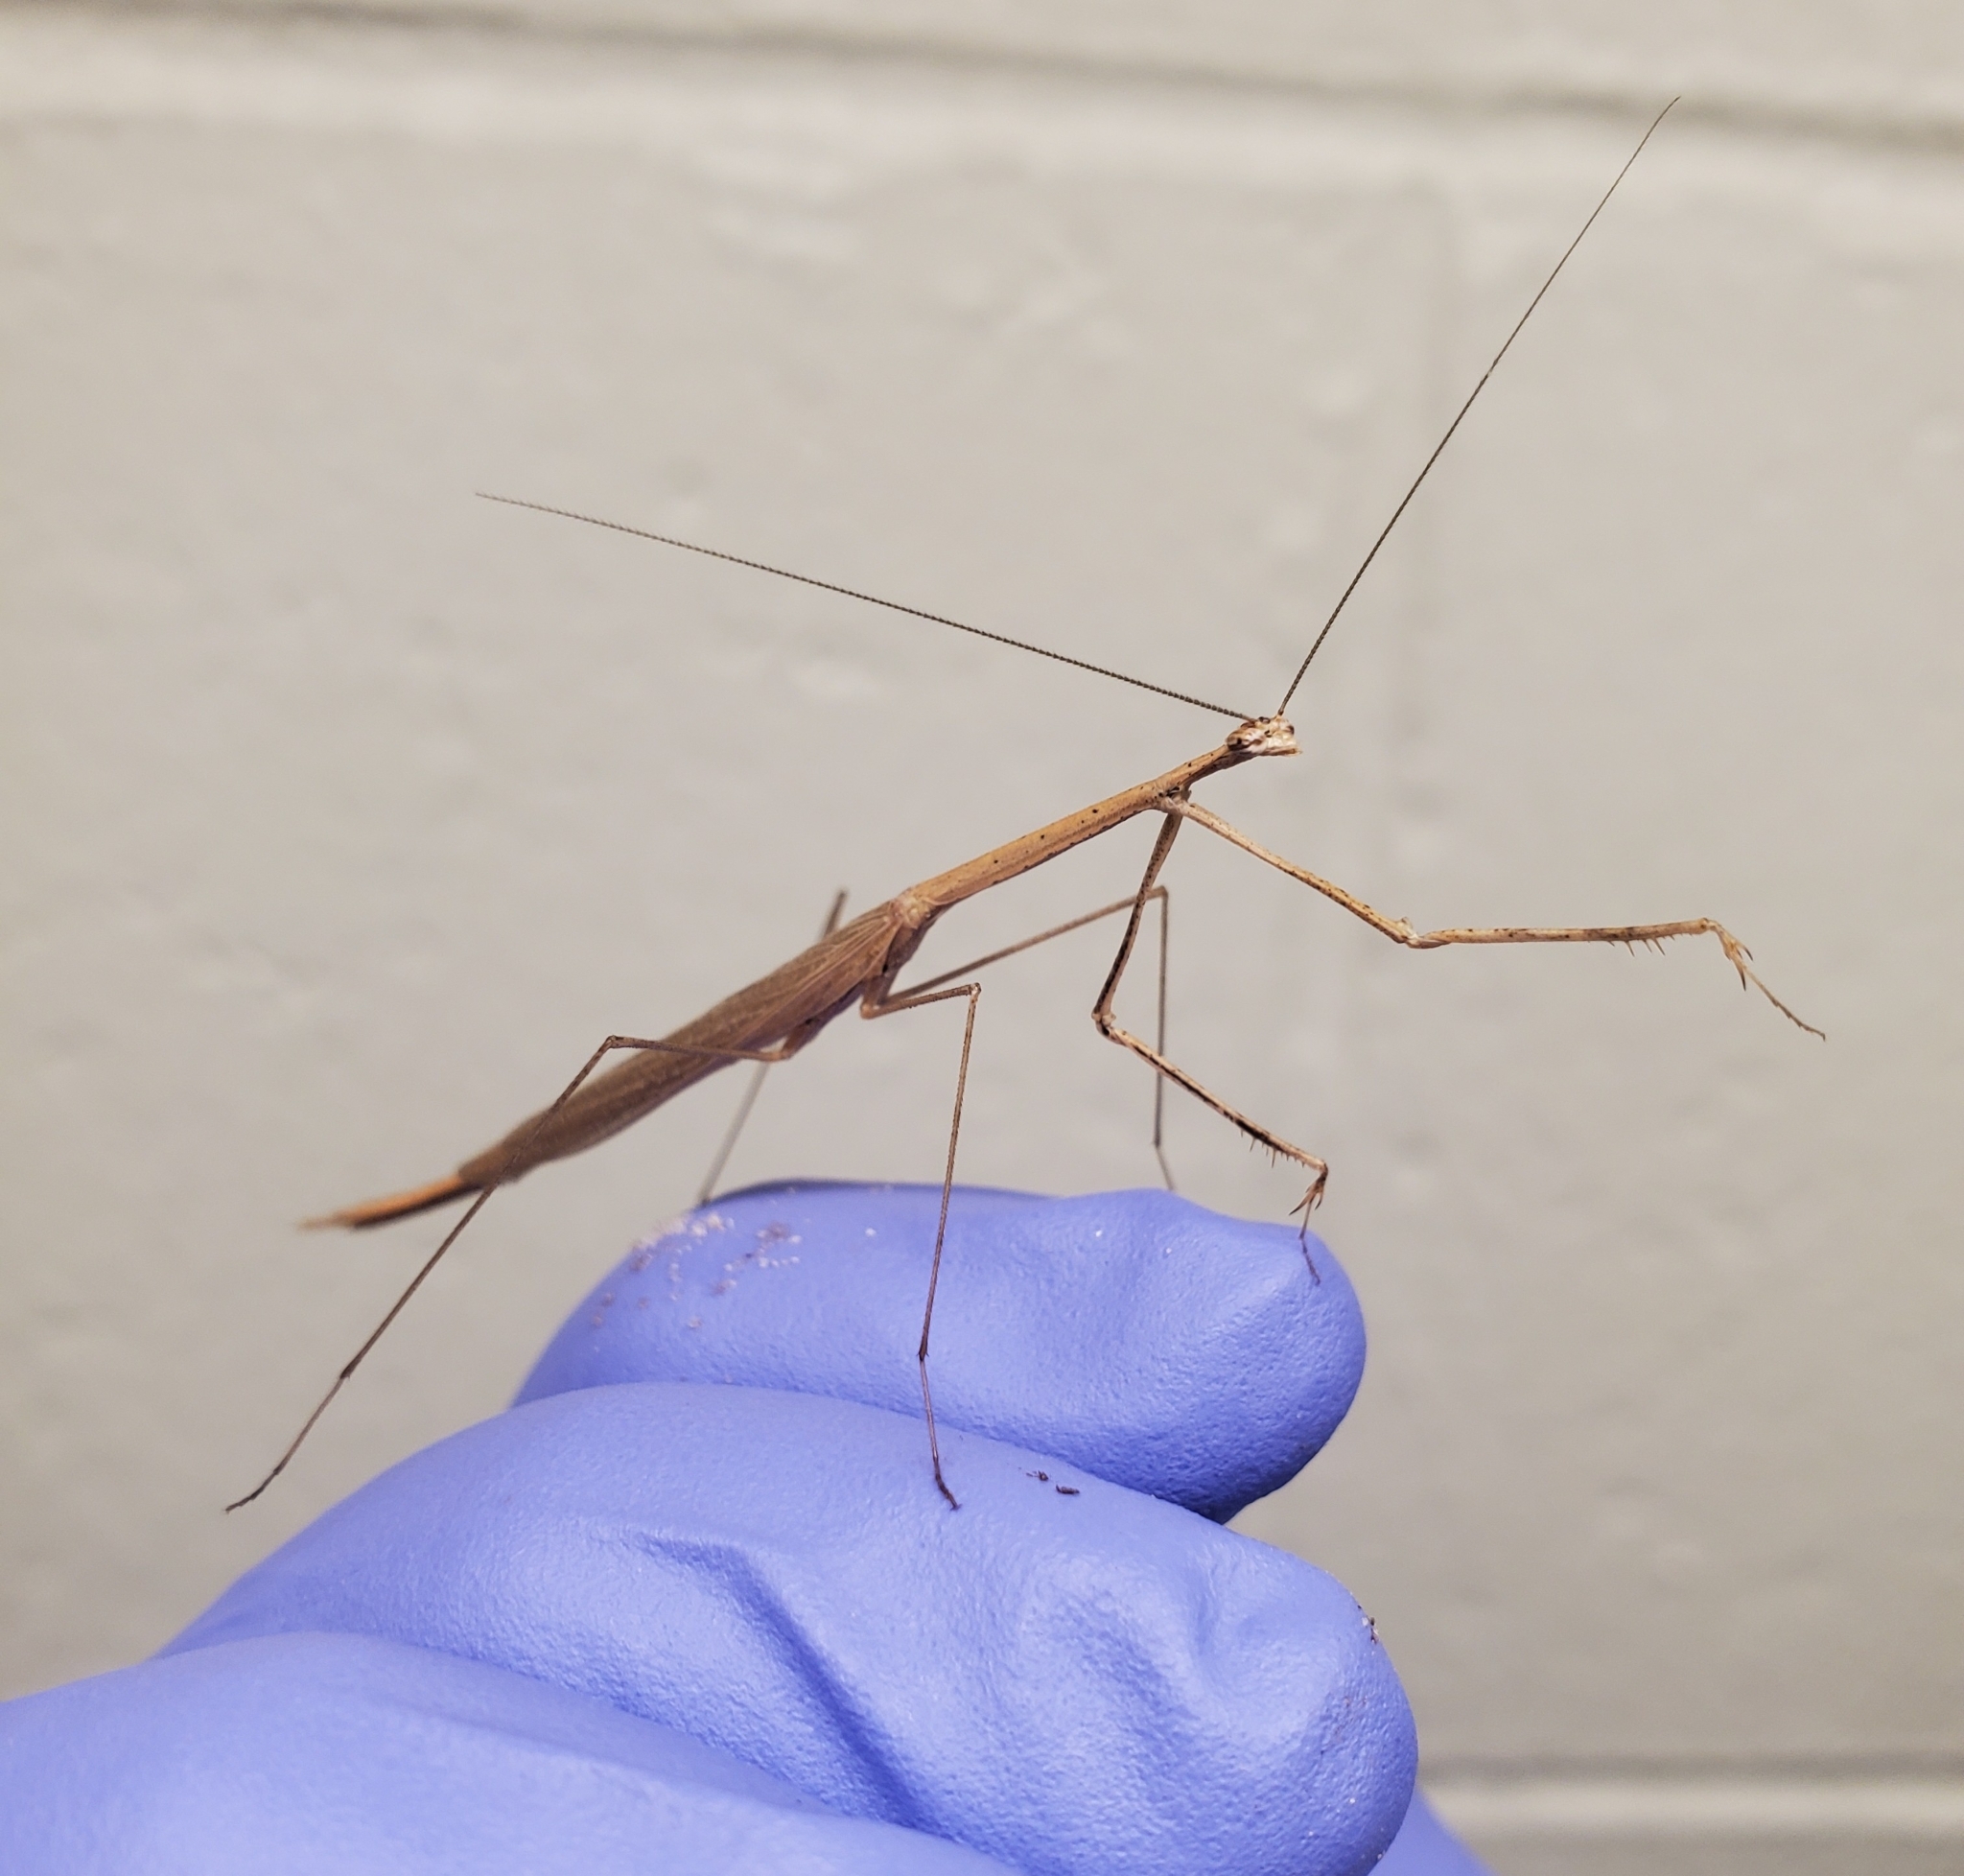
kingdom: Animalia
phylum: Arthropoda
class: Insecta
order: Mantodea
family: Thespidae
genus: Thesprotia
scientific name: Thesprotia graminis
